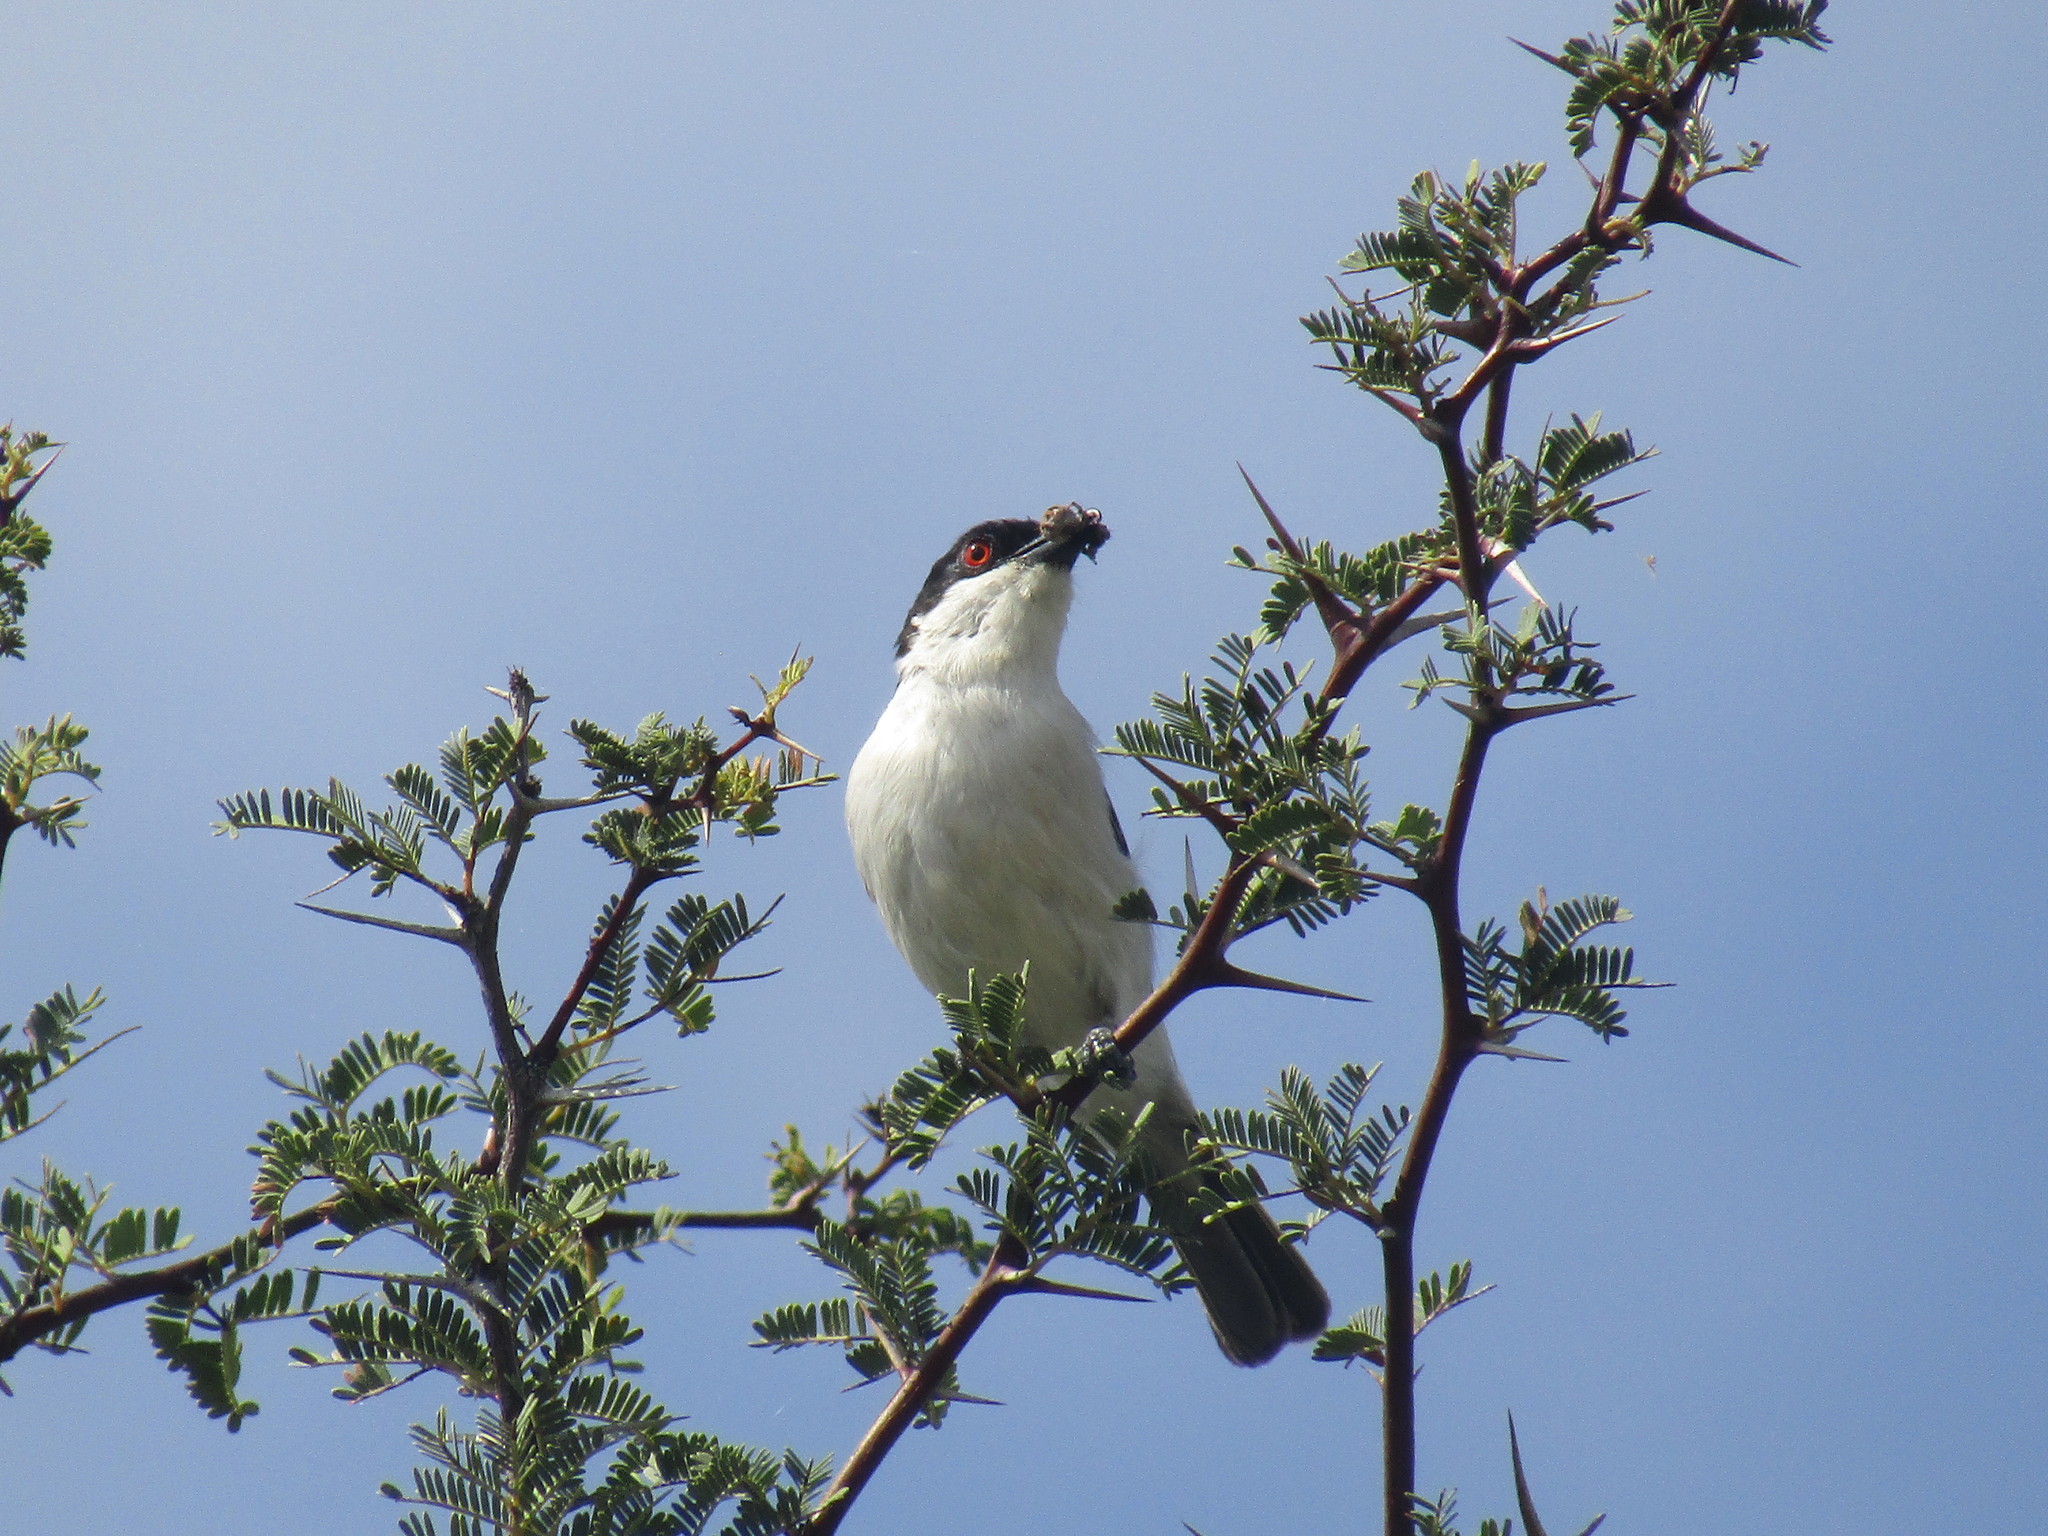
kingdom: Animalia
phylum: Chordata
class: Aves
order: Passeriformes
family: Malaconotidae
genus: Dryoscopus
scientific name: Dryoscopus cubla
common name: Black-backed puffback
